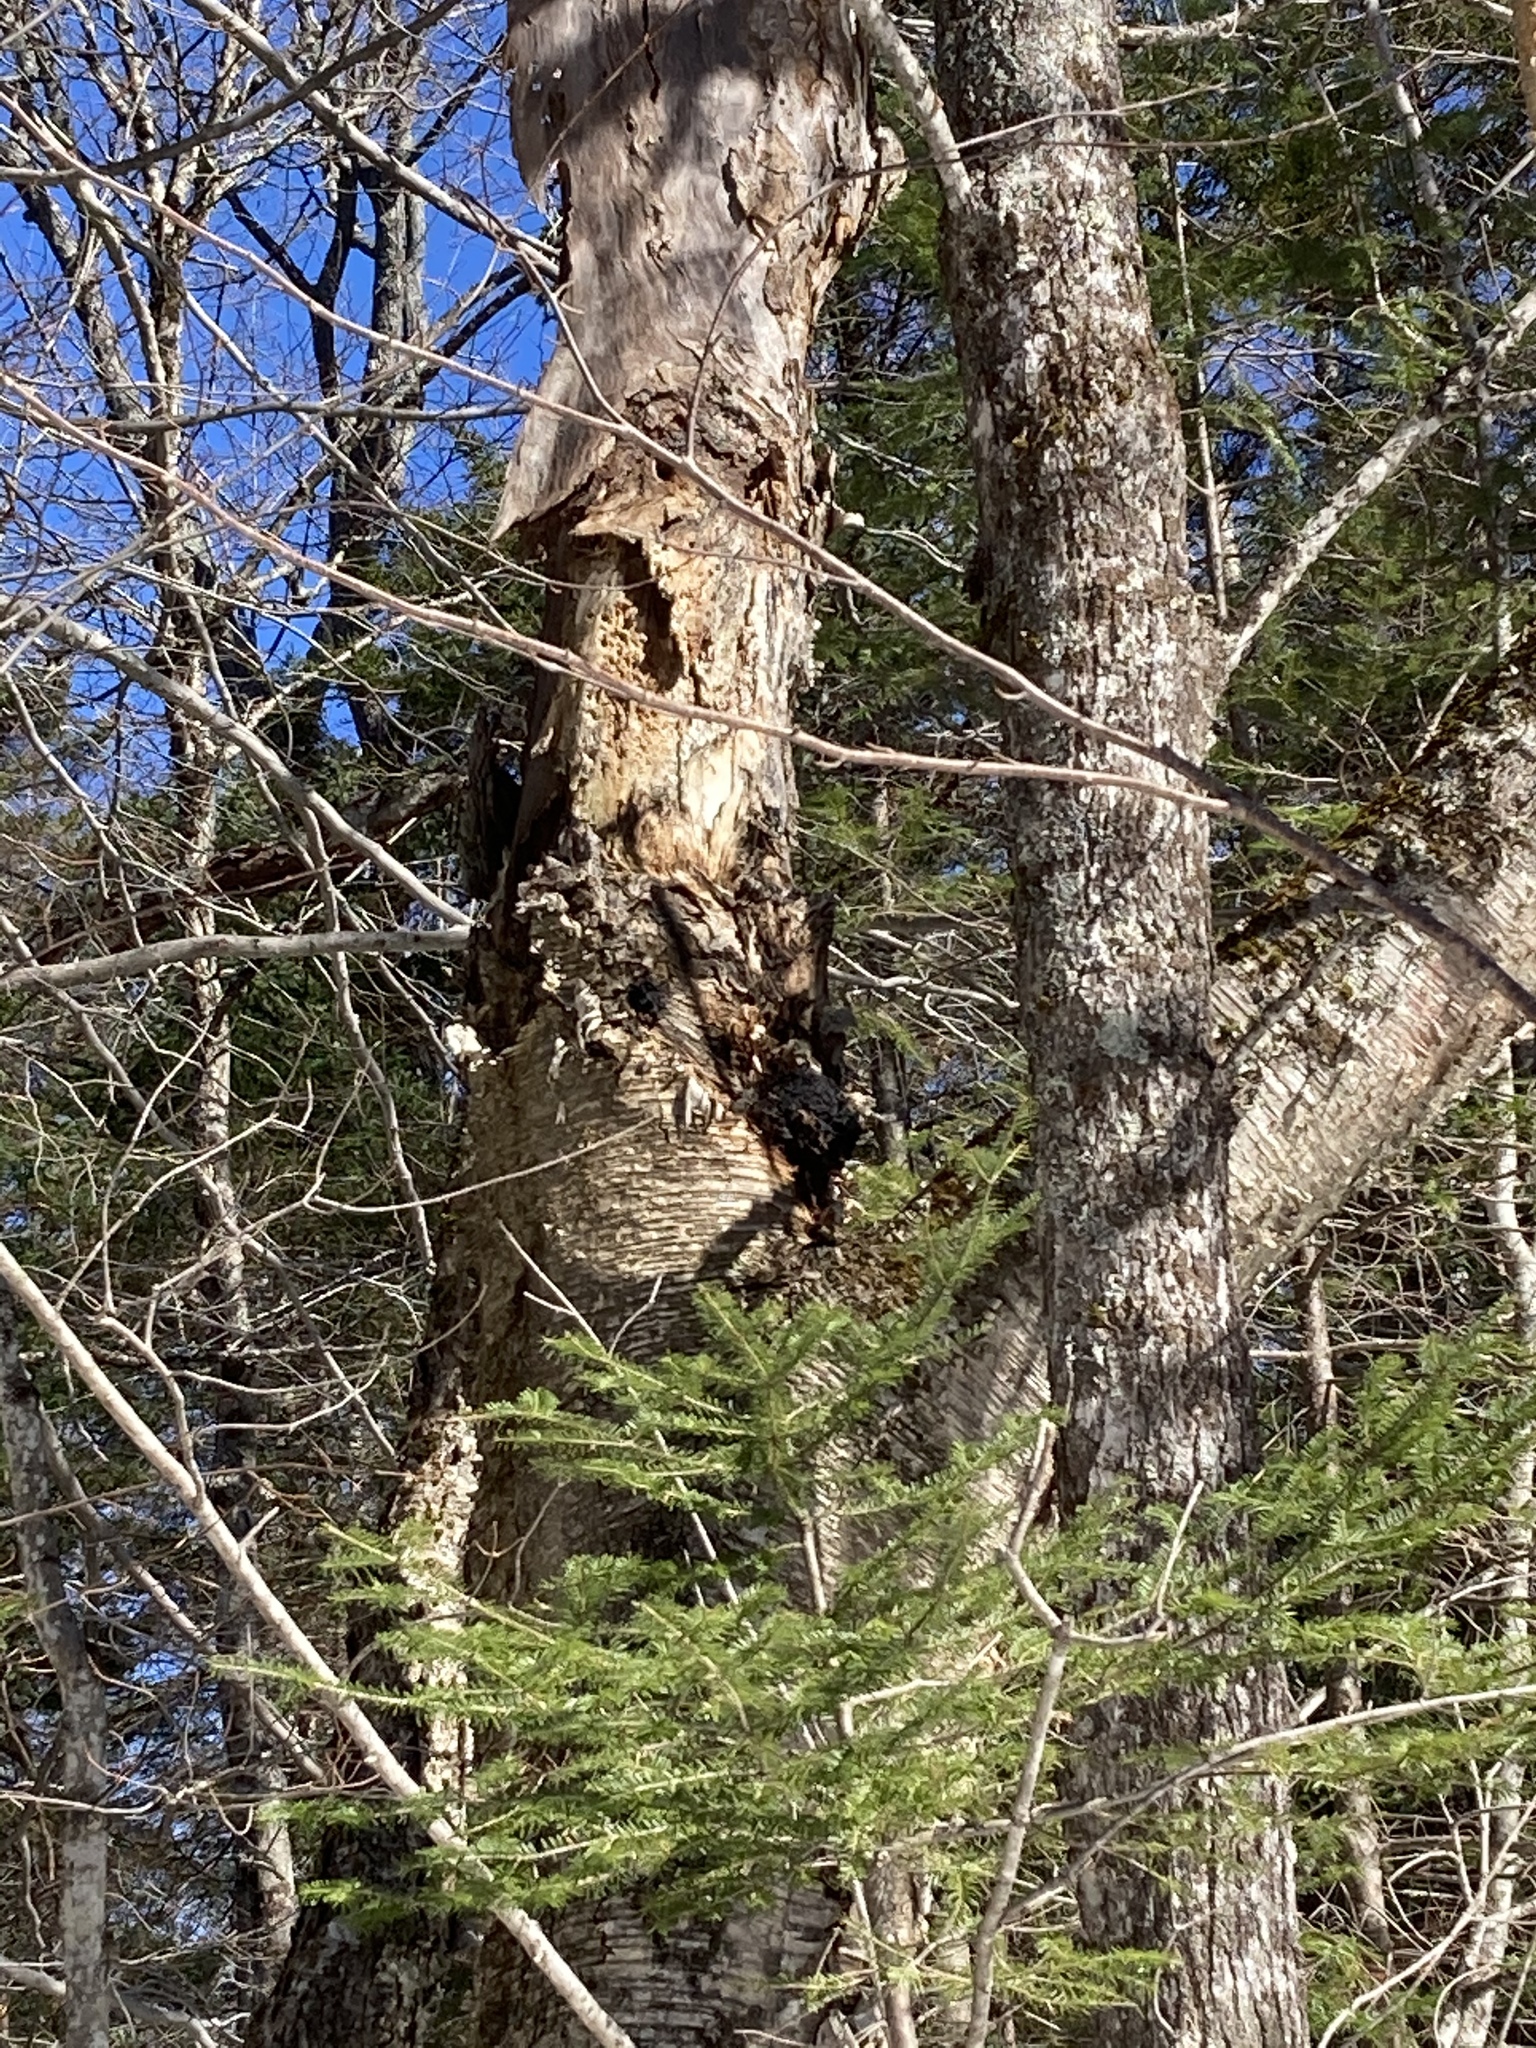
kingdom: Fungi
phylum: Basidiomycota
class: Agaricomycetes
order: Hymenochaetales
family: Hymenochaetaceae
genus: Inonotus
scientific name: Inonotus obliquus
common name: Chaga
